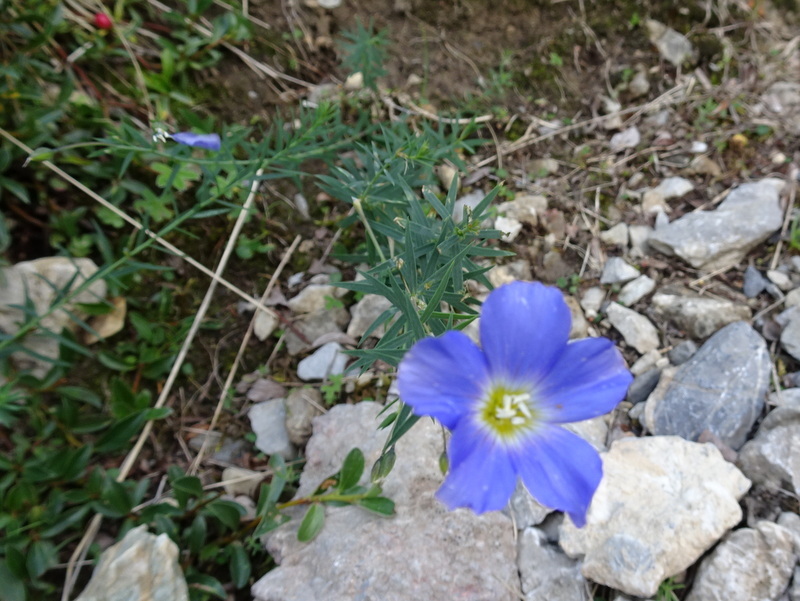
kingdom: Plantae
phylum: Tracheophyta
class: Magnoliopsida
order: Malpighiales
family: Linaceae
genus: Linum
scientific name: Linum alpinum
